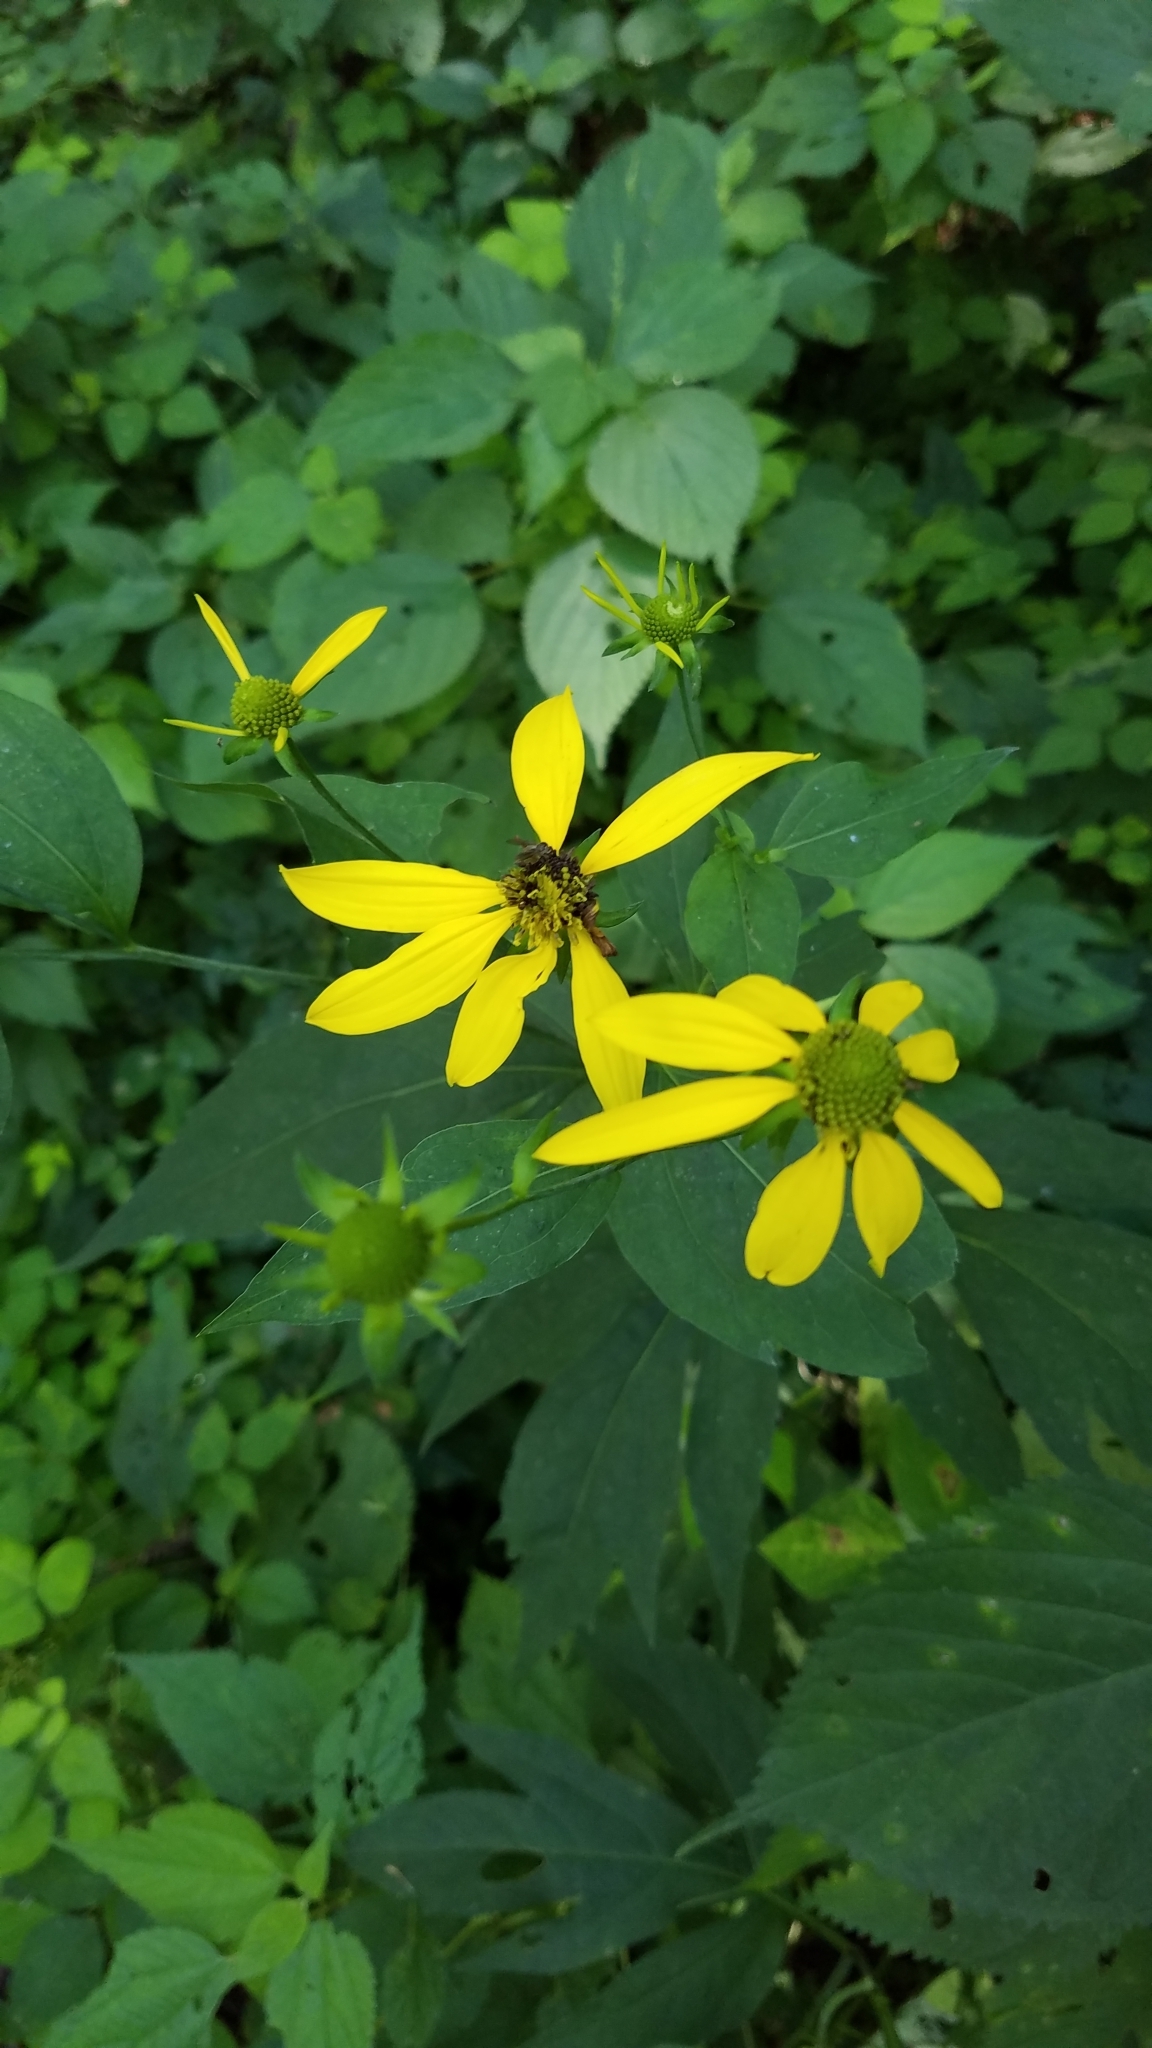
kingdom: Plantae
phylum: Tracheophyta
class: Magnoliopsida
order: Asterales
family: Asteraceae
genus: Rudbeckia
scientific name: Rudbeckia laciniata
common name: Coneflower
